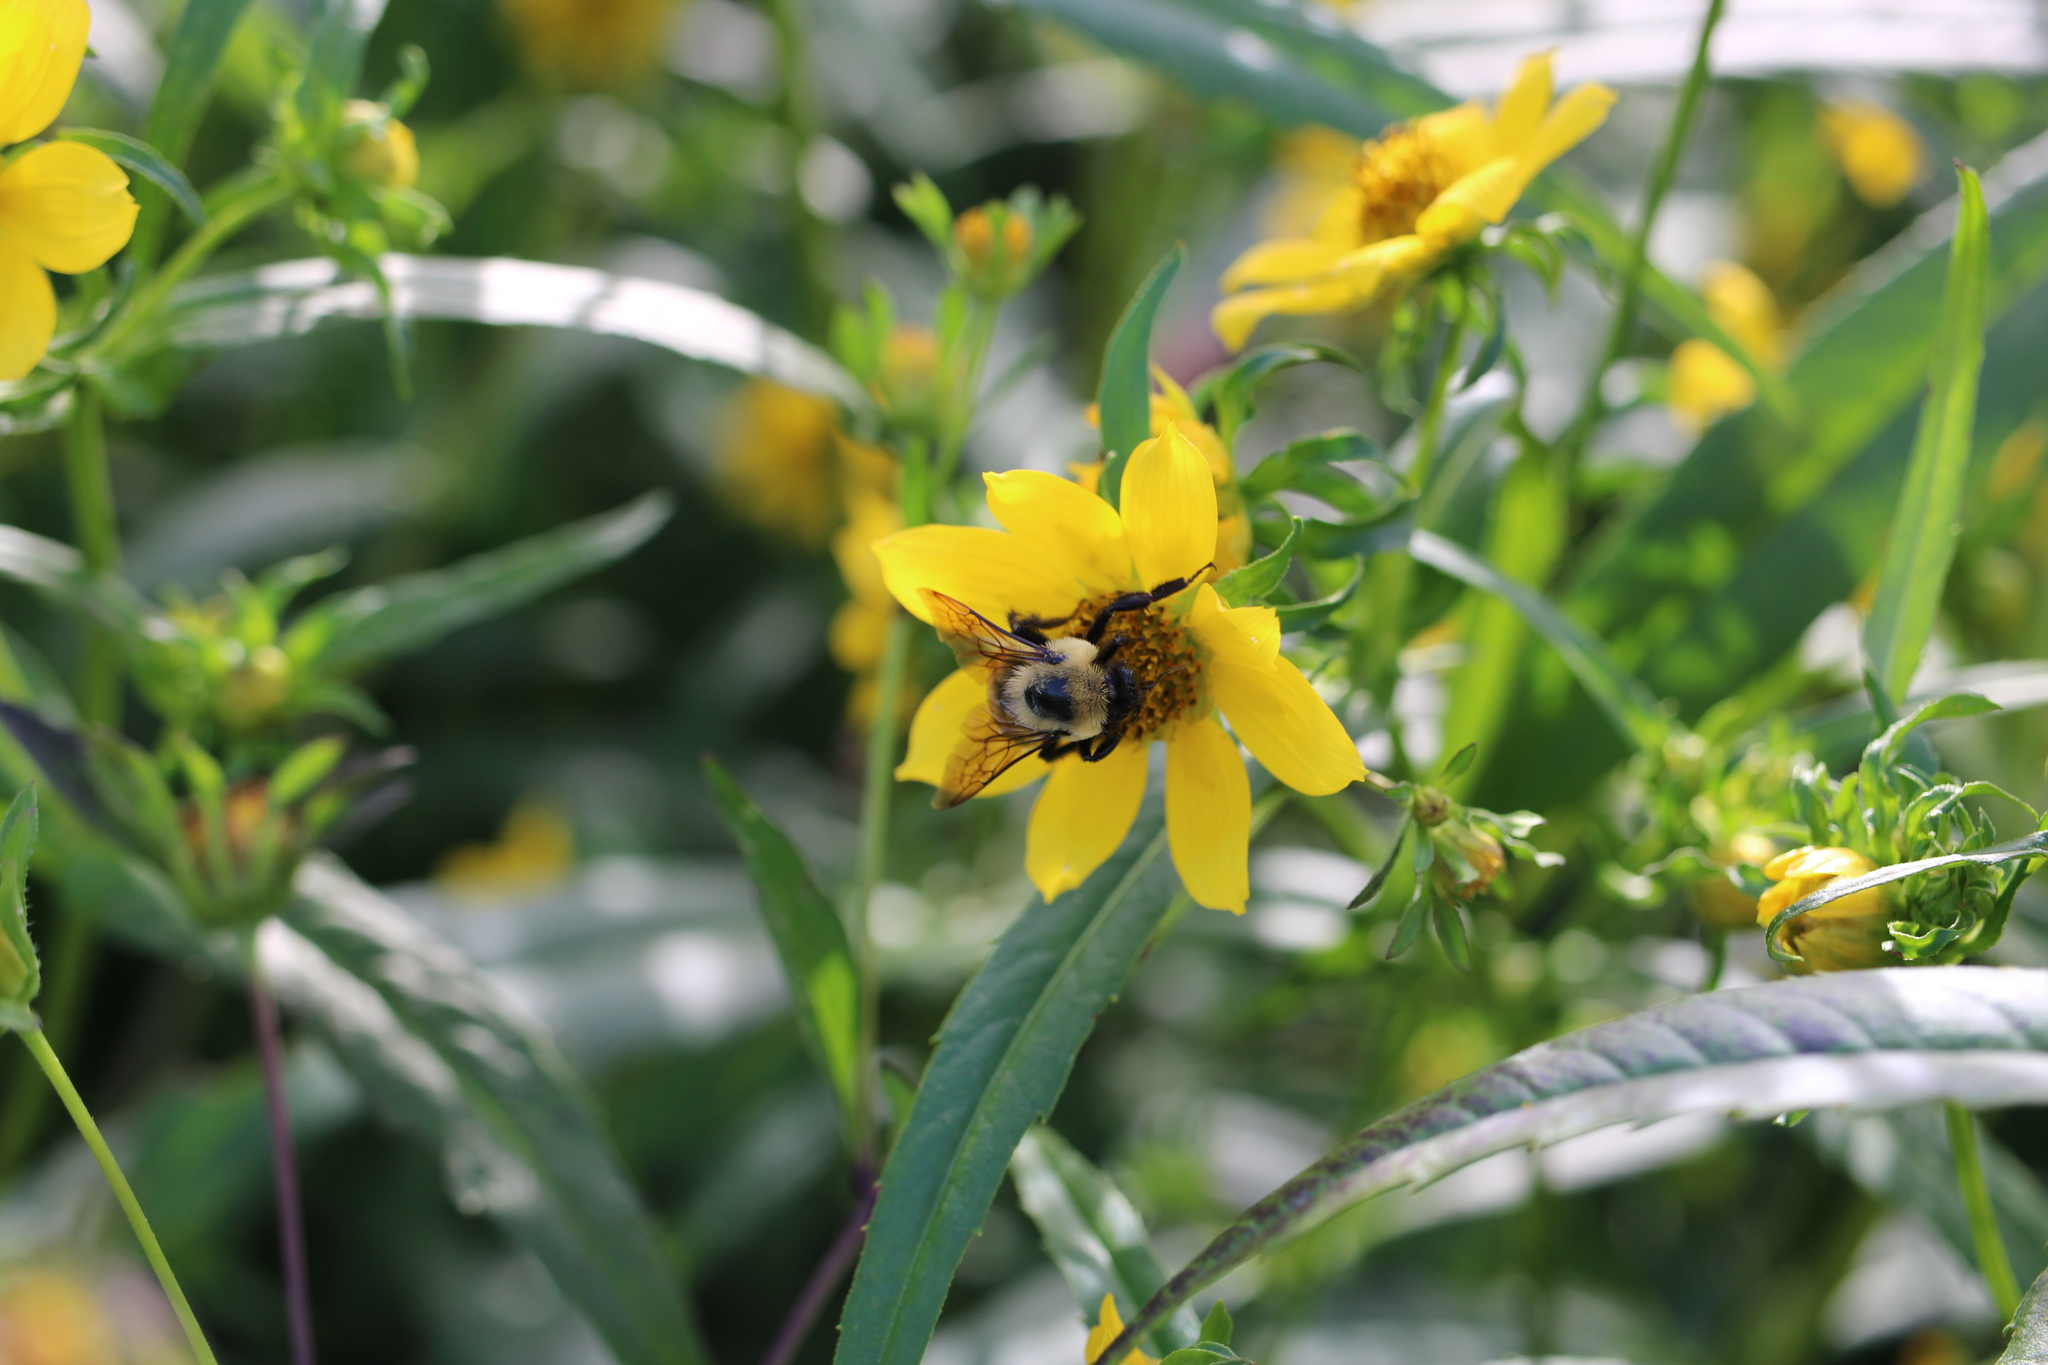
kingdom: Animalia
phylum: Arthropoda
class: Insecta
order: Hymenoptera
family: Apidae
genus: Bombus
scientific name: Bombus griseocollis
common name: Brown-belted bumble bee
